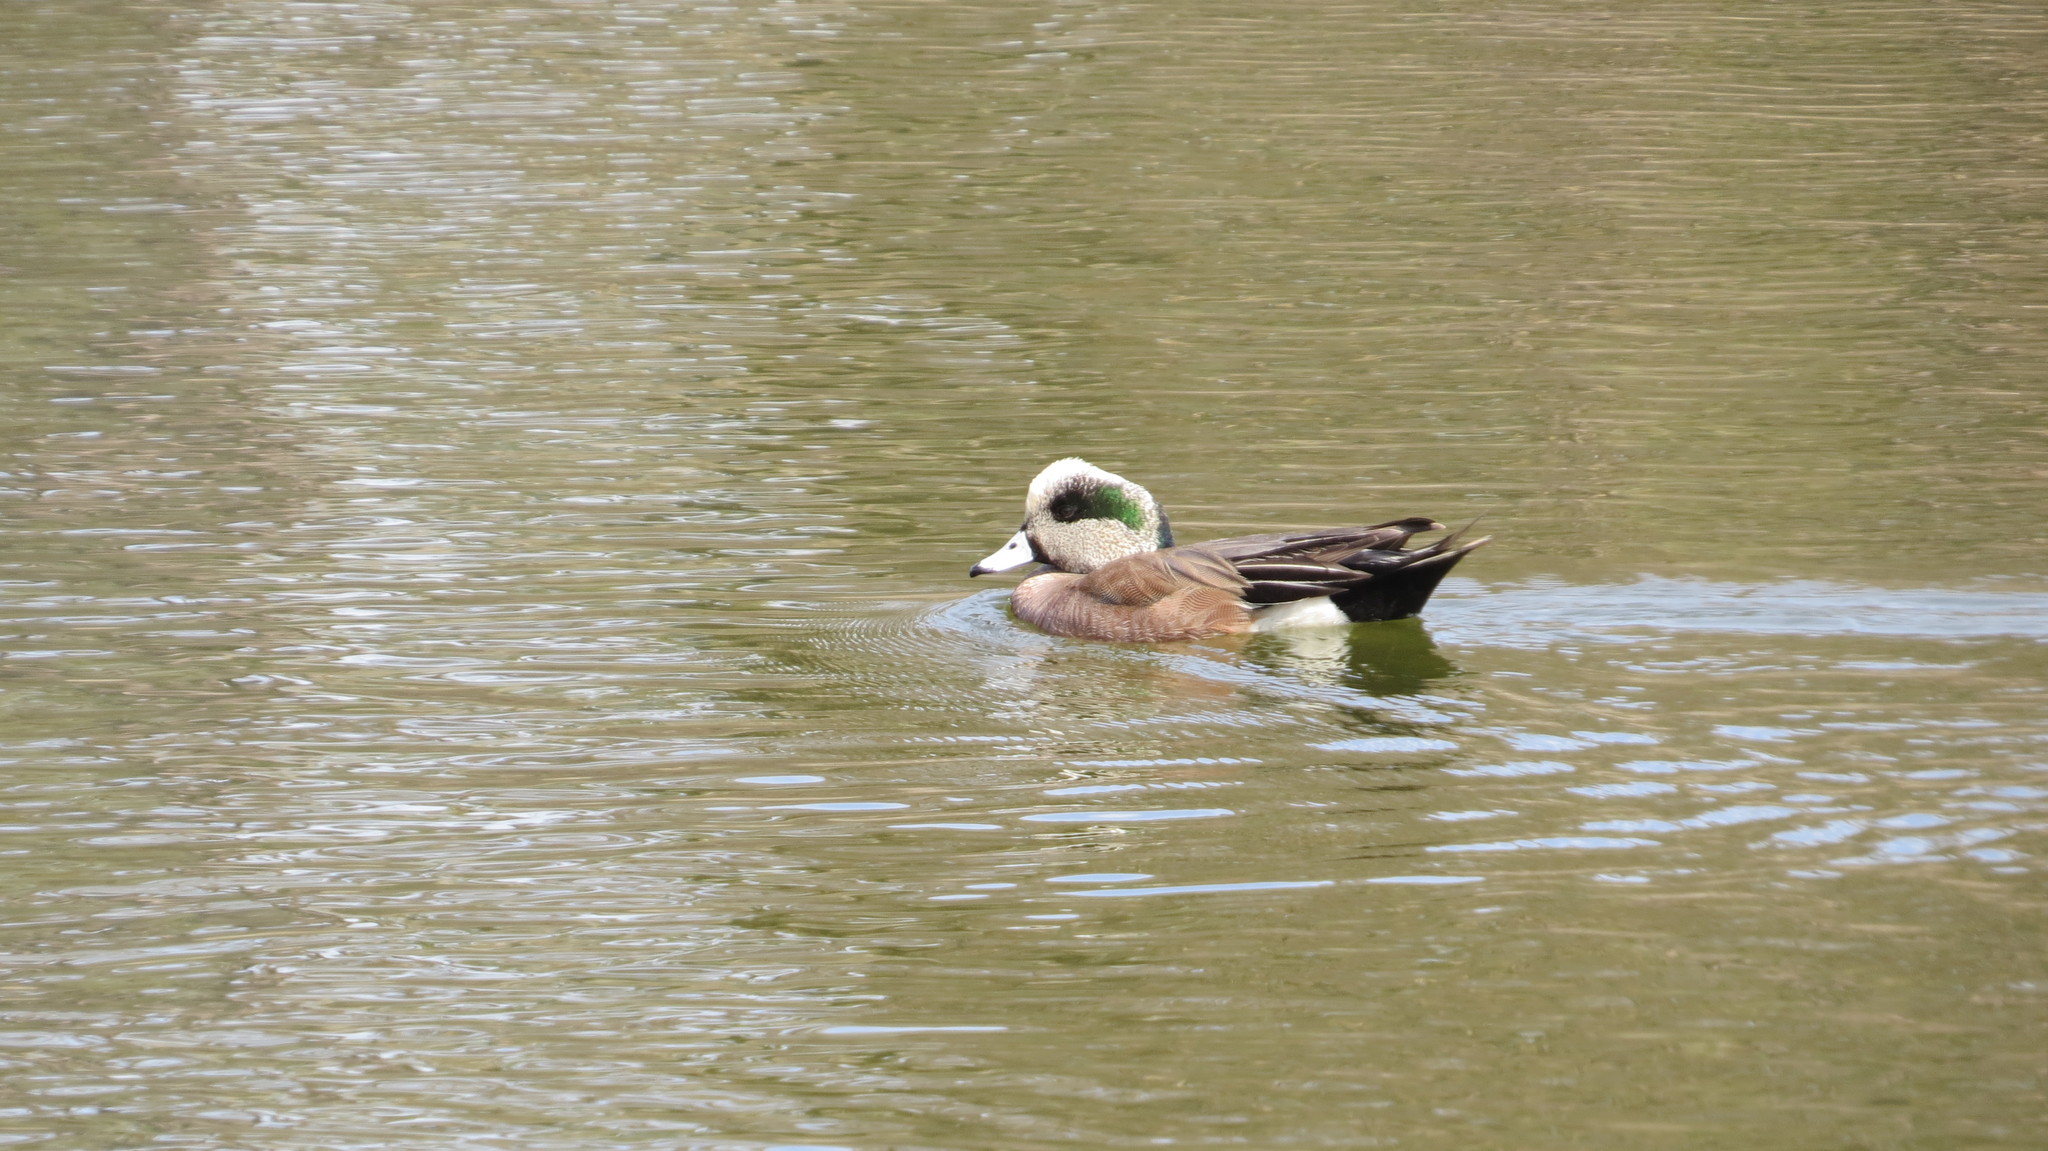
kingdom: Animalia
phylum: Chordata
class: Aves
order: Anseriformes
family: Anatidae
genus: Mareca
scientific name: Mareca americana
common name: American wigeon
